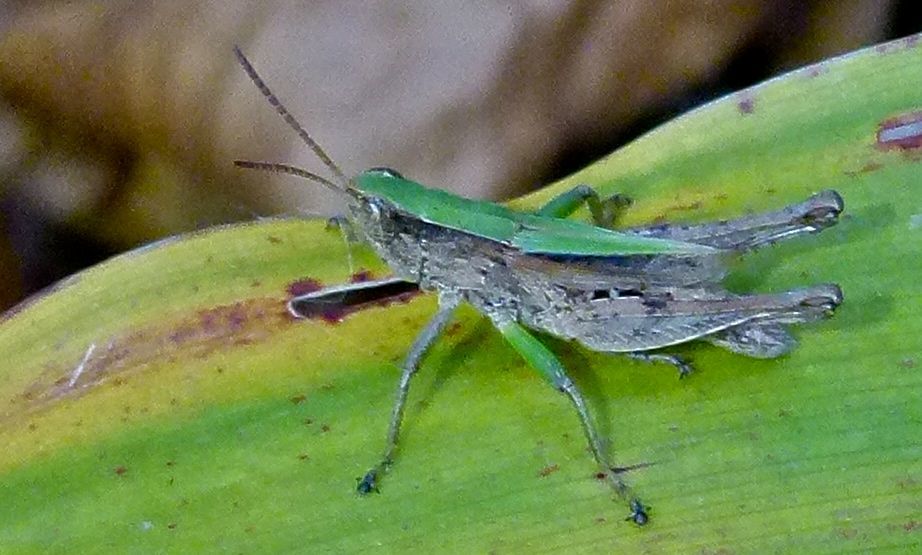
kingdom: Animalia
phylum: Arthropoda
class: Insecta
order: Orthoptera
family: Acrididae
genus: Dichromorpha
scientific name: Dichromorpha viridis
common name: Short-winged green grasshopper
